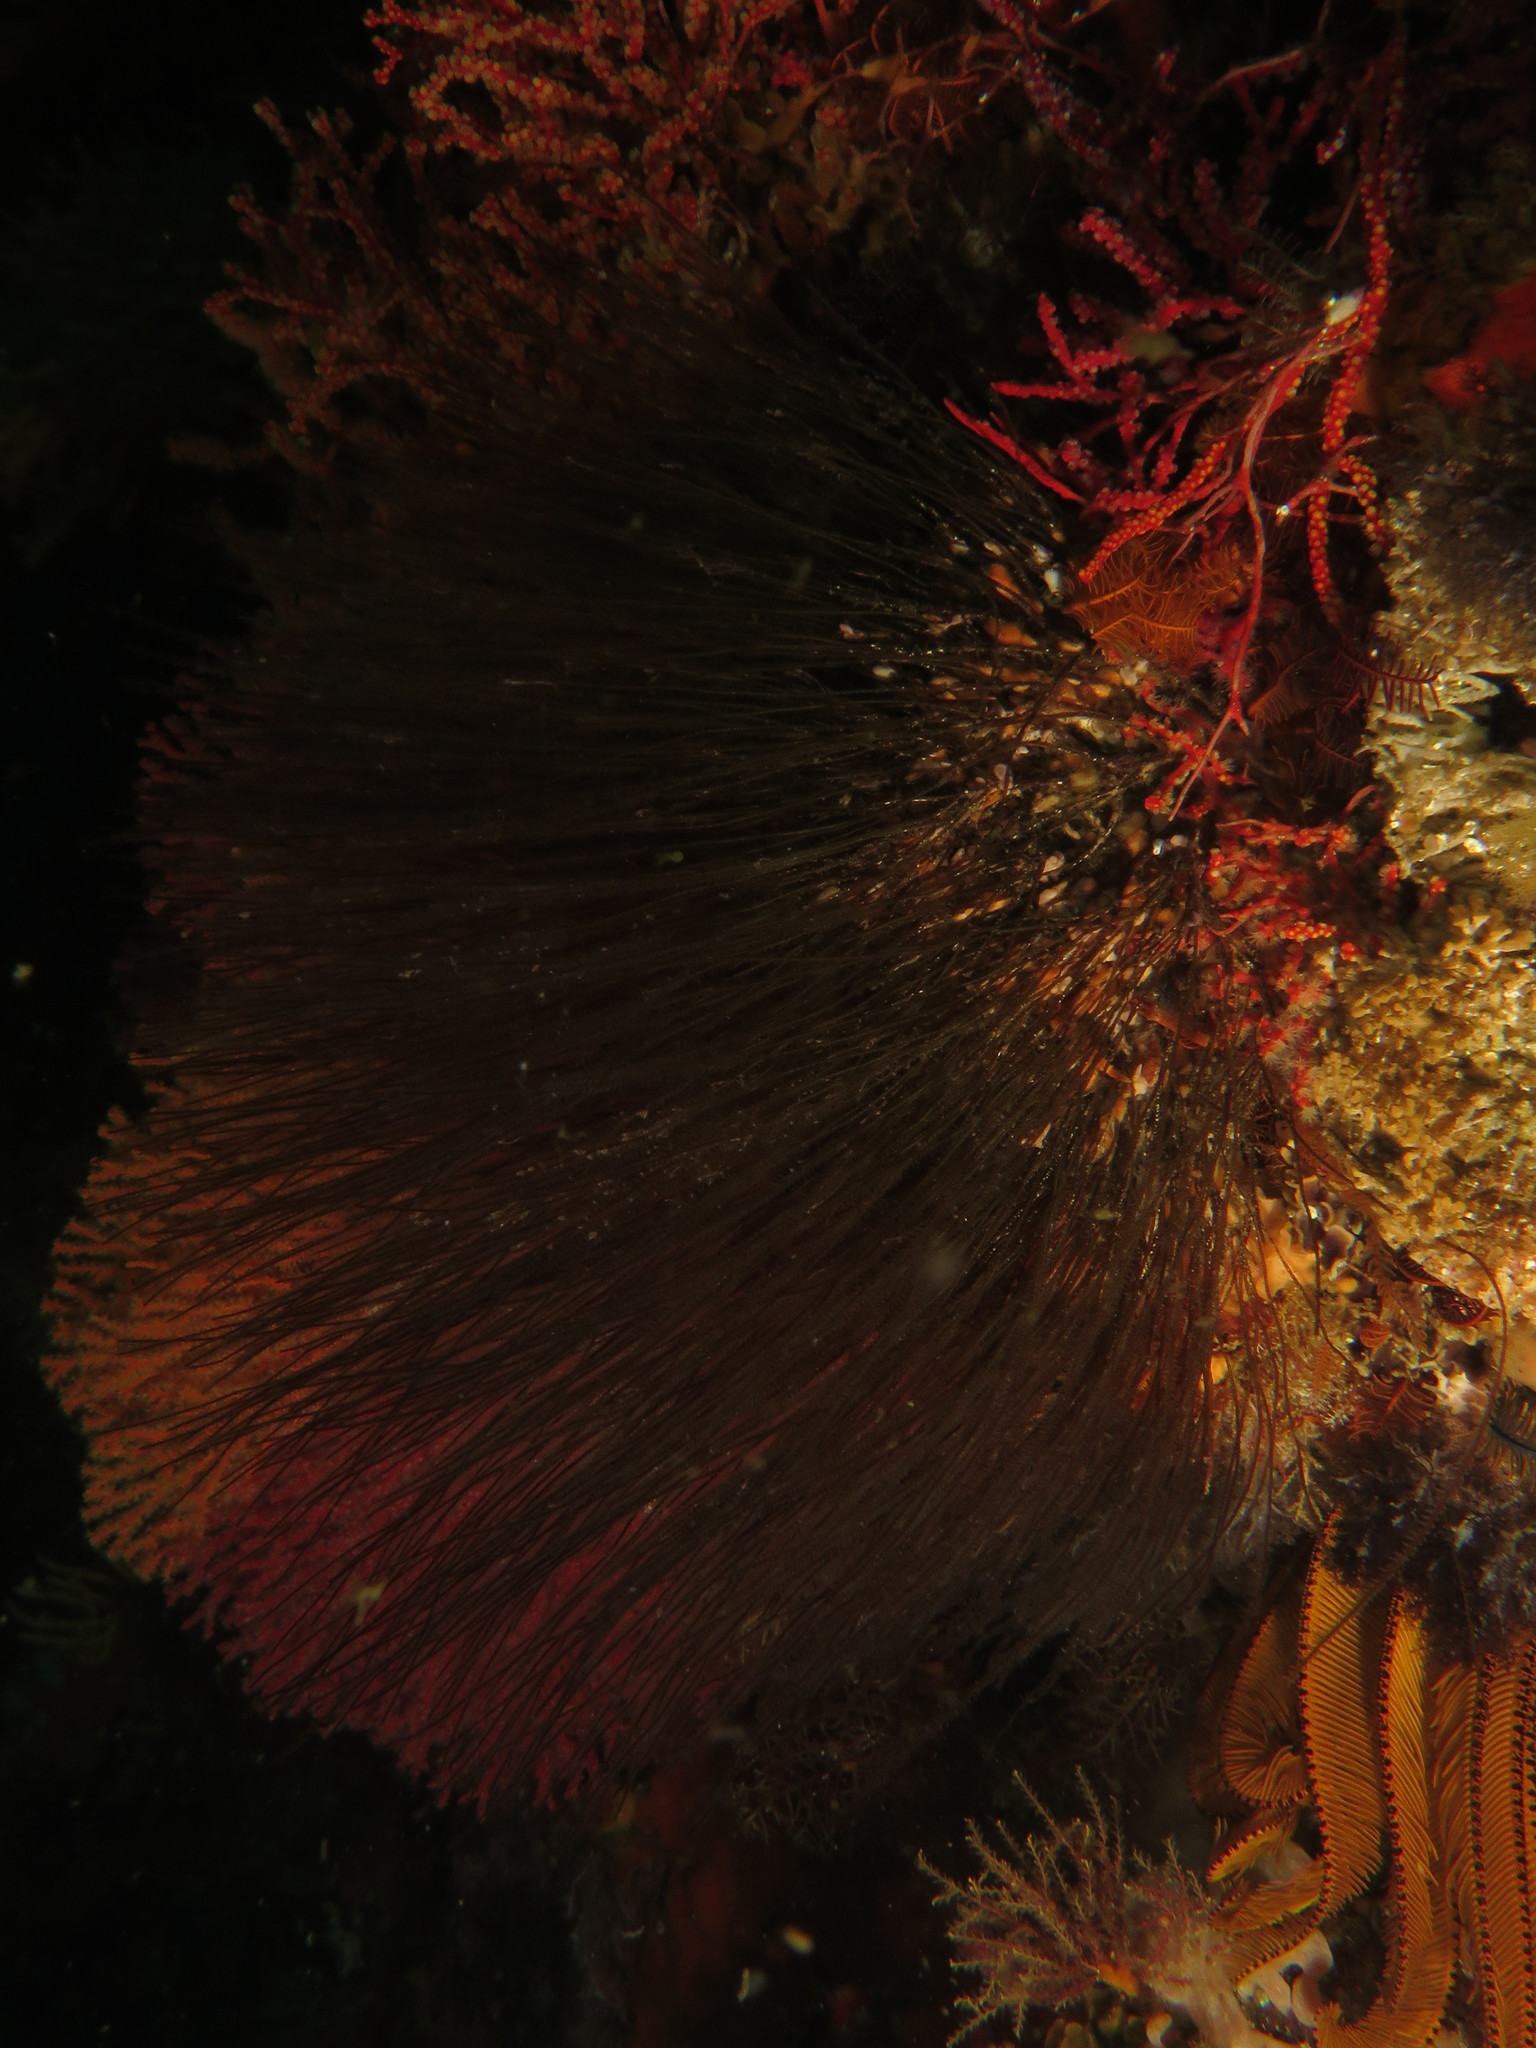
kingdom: Animalia
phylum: Cnidaria
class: Hydrozoa
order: Leptothecata
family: Halopterididae
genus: Corhiza
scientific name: Corhiza scotiae
